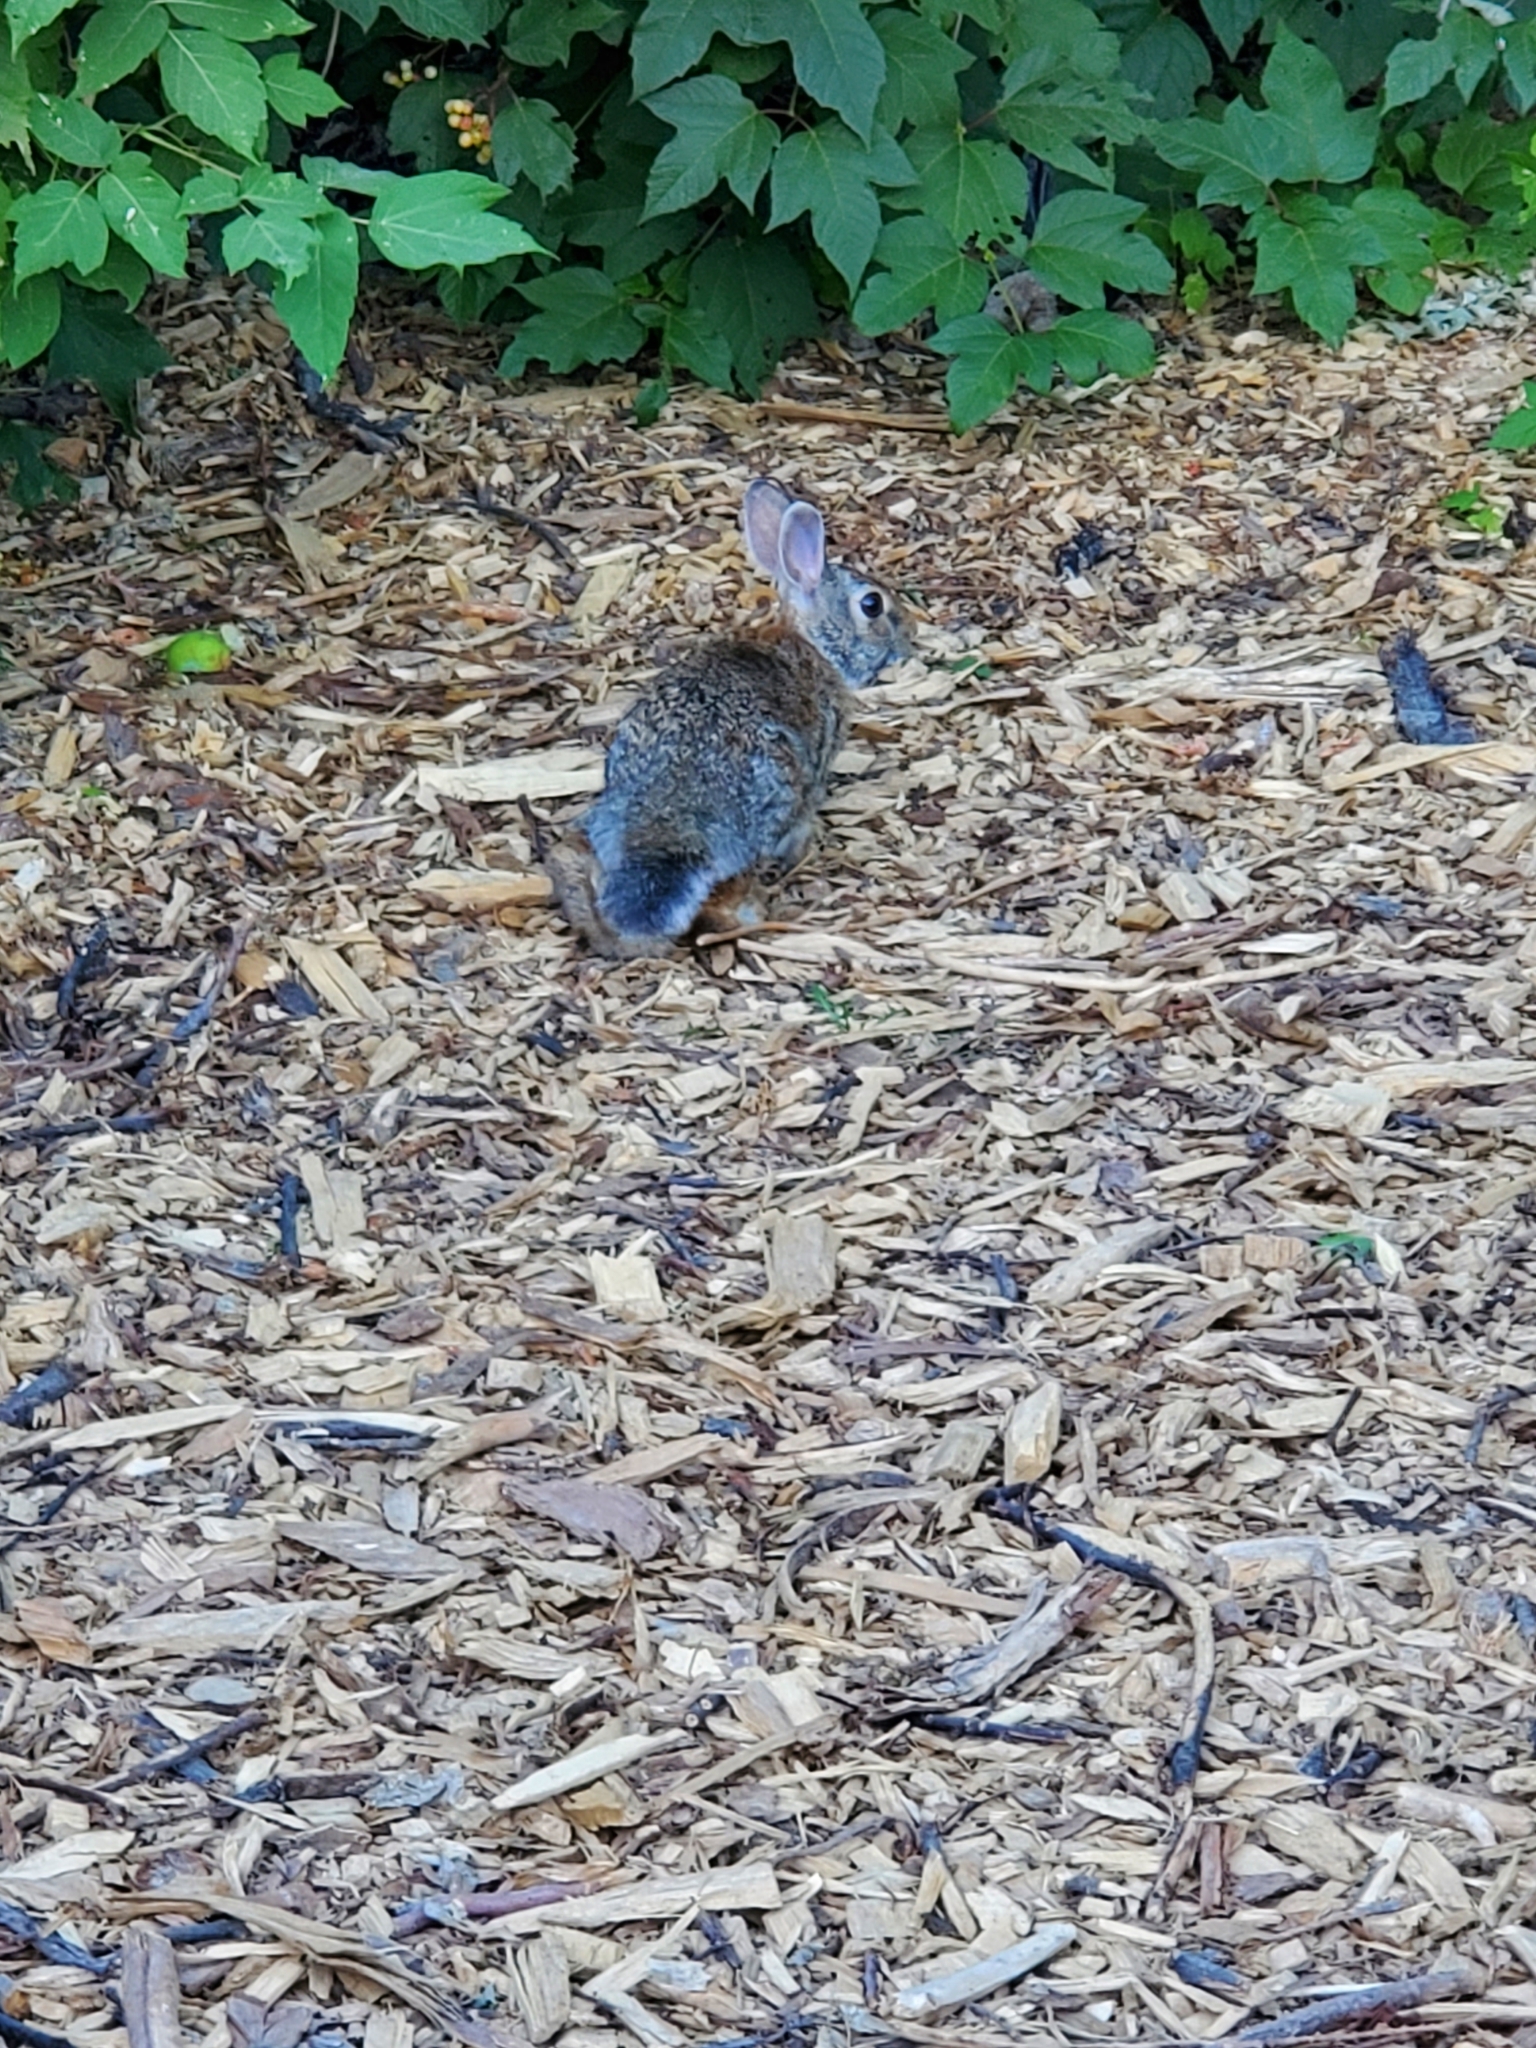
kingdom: Animalia
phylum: Chordata
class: Mammalia
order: Lagomorpha
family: Leporidae
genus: Sylvilagus
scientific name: Sylvilagus floridanus
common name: Eastern cottontail
